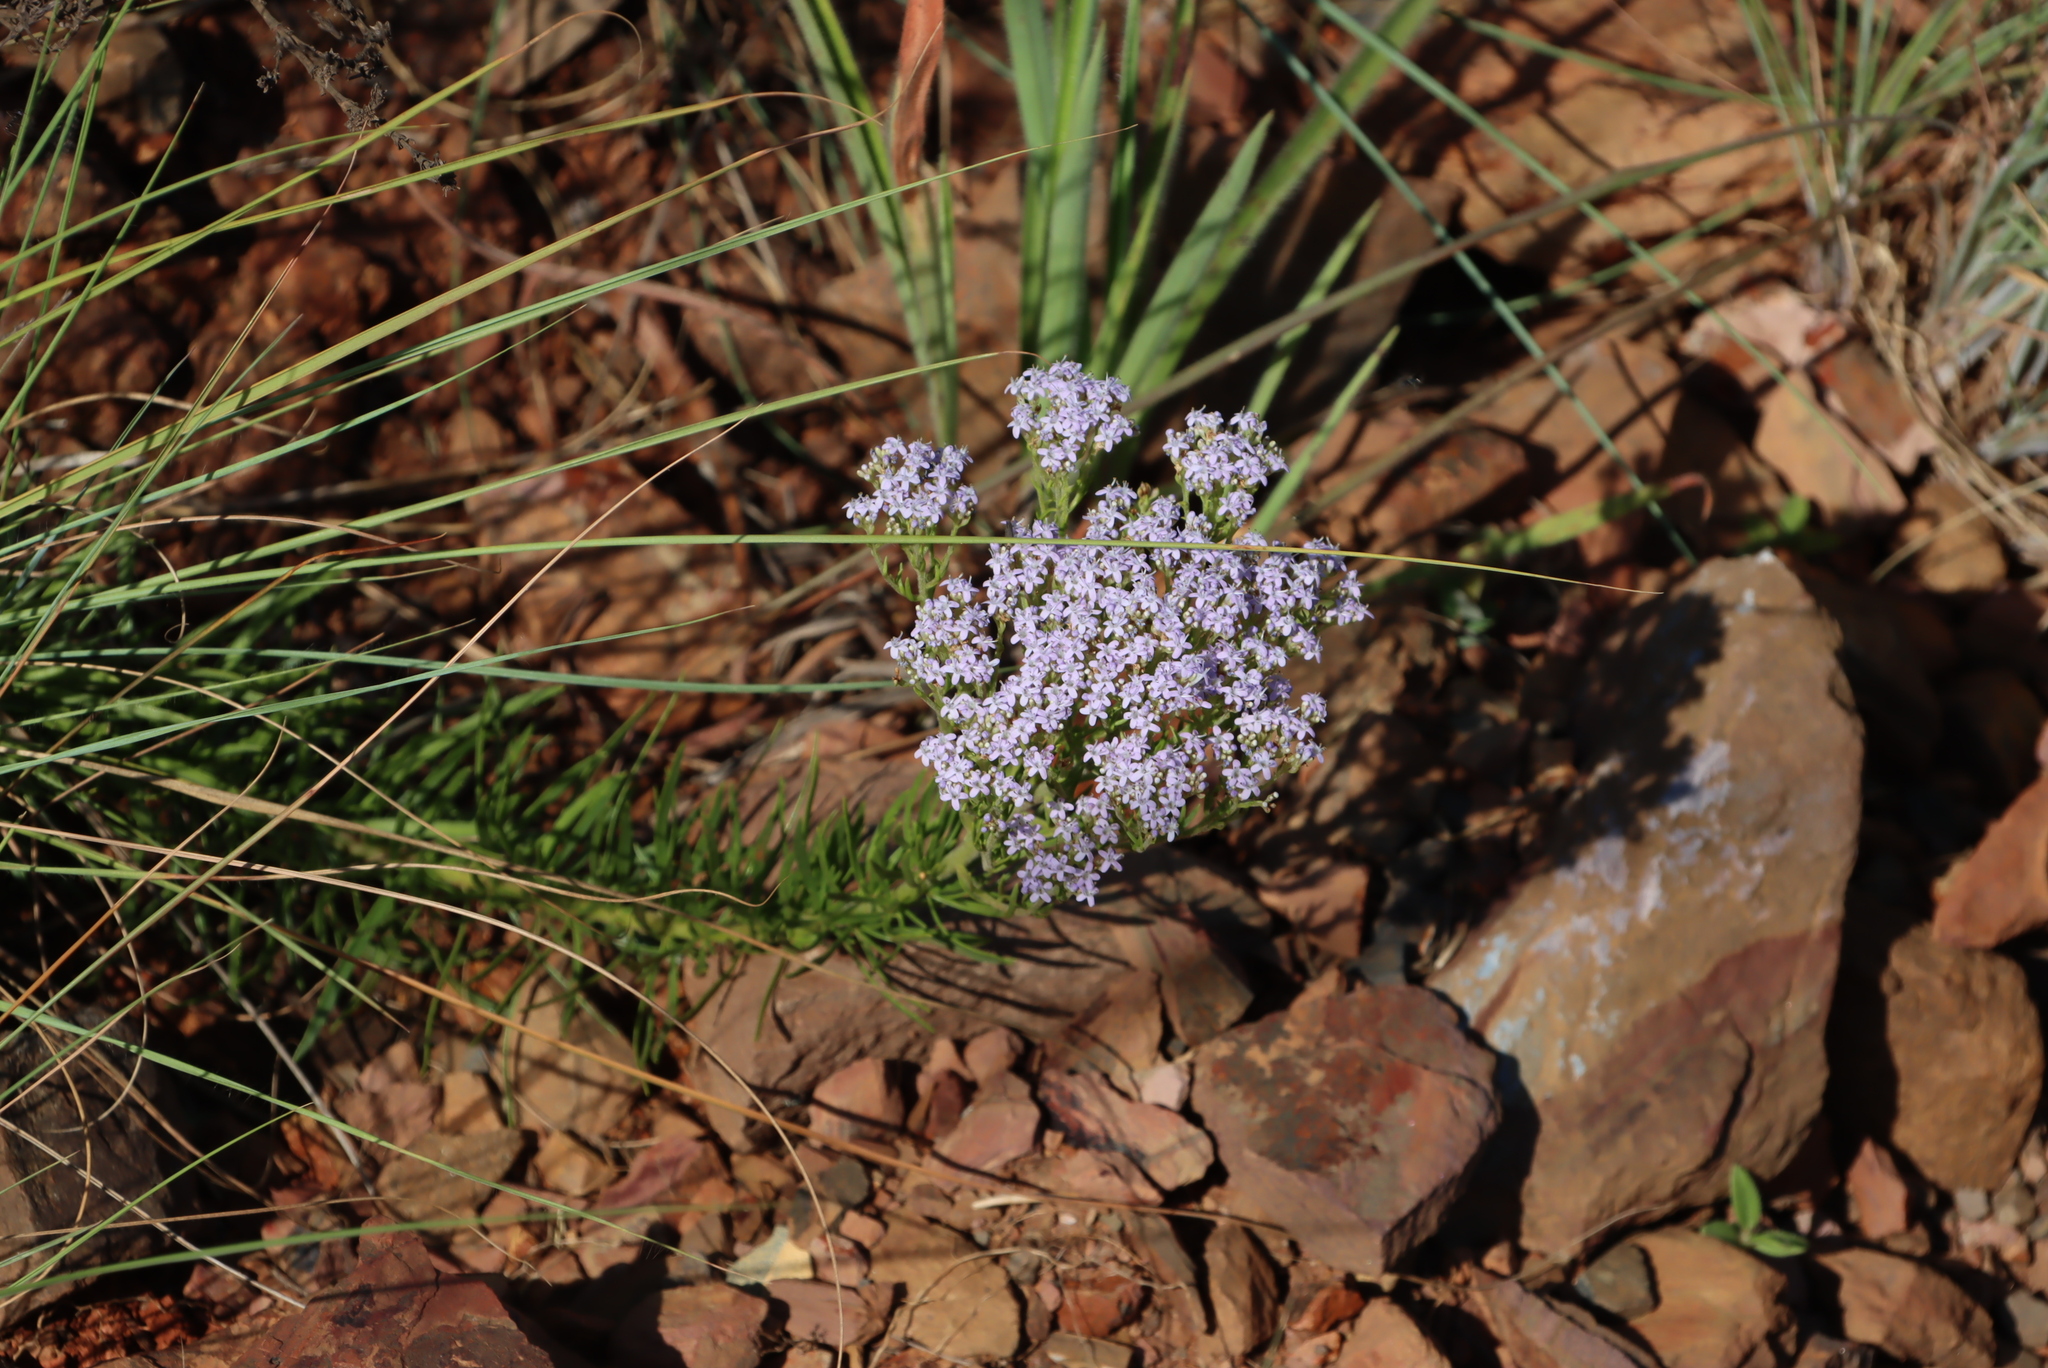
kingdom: Plantae
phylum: Tracheophyta
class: Magnoliopsida
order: Lamiales
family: Scrophulariaceae
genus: Tetraselago
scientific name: Tetraselago natalensis
